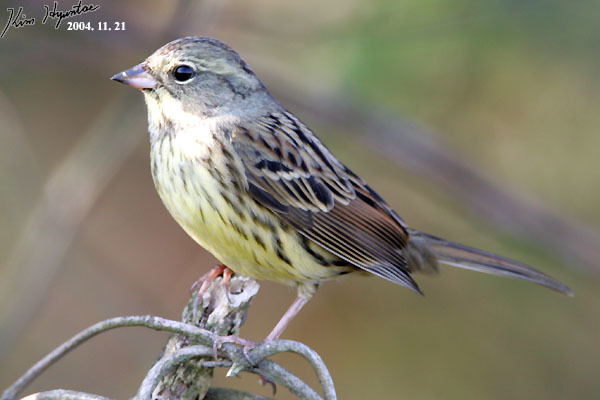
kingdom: Animalia
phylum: Chordata
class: Aves
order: Passeriformes
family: Emberizidae
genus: Emberiza
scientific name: Emberiza spodocephala
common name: Black-faced bunting
